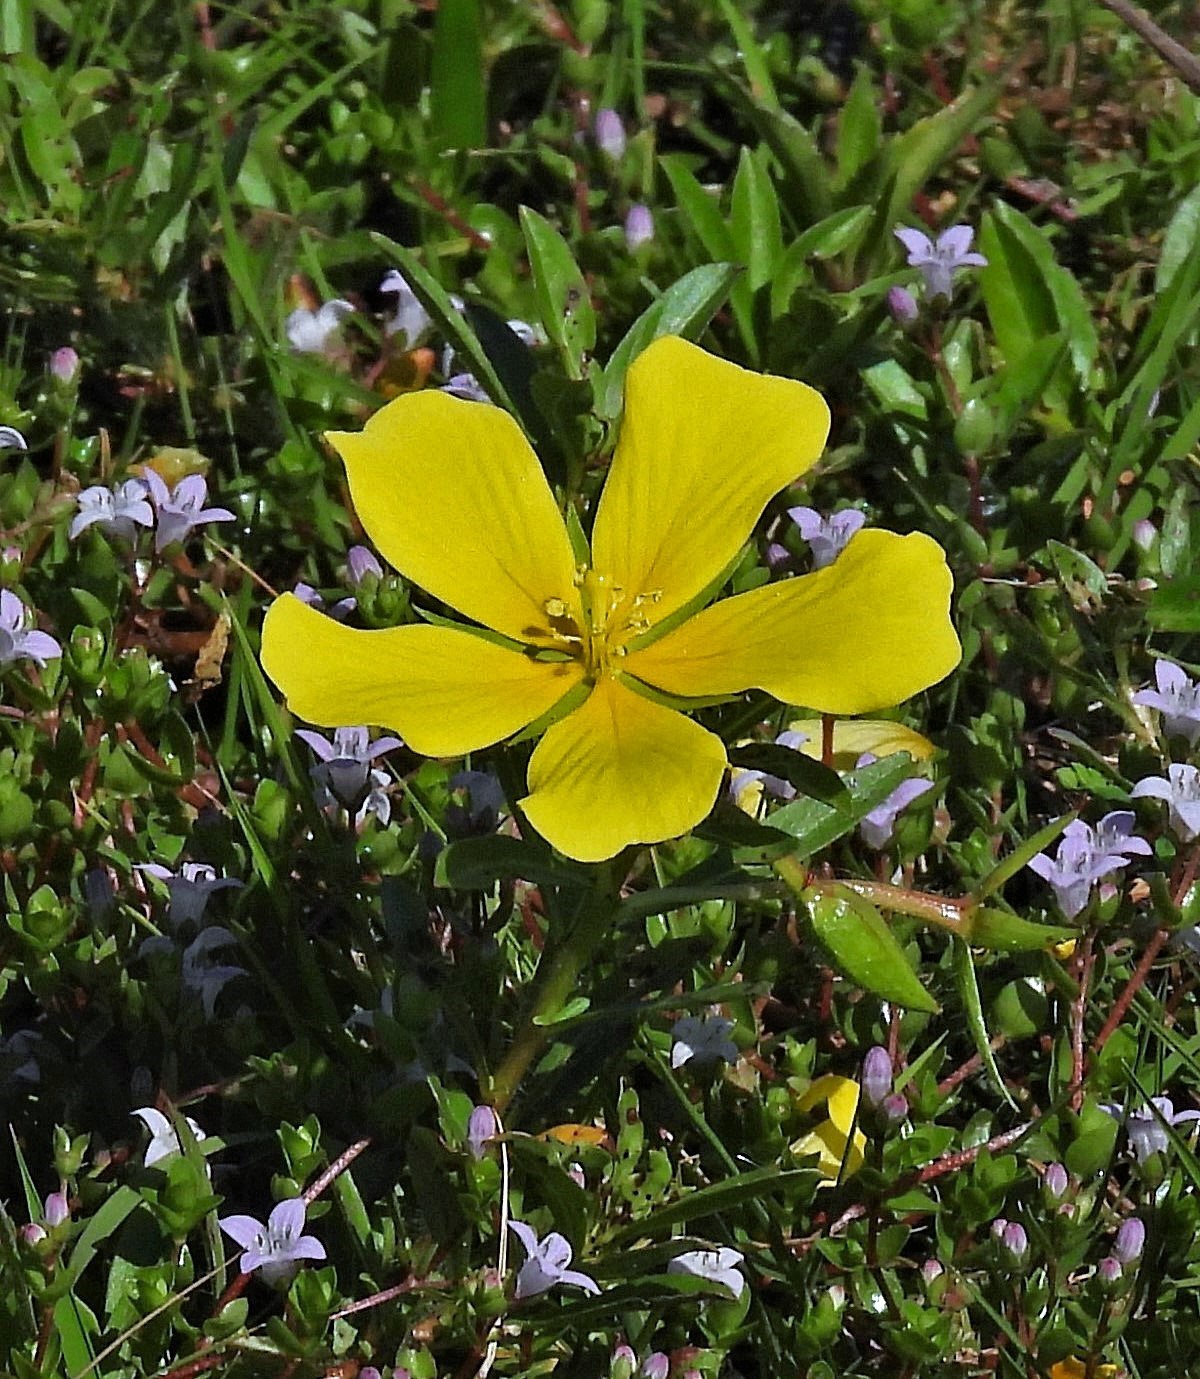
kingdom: Plantae
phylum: Tracheophyta
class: Magnoliopsida
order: Myrtales
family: Onagraceae
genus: Ludwigia
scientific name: Ludwigia peploides
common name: Floating primrose-willow
